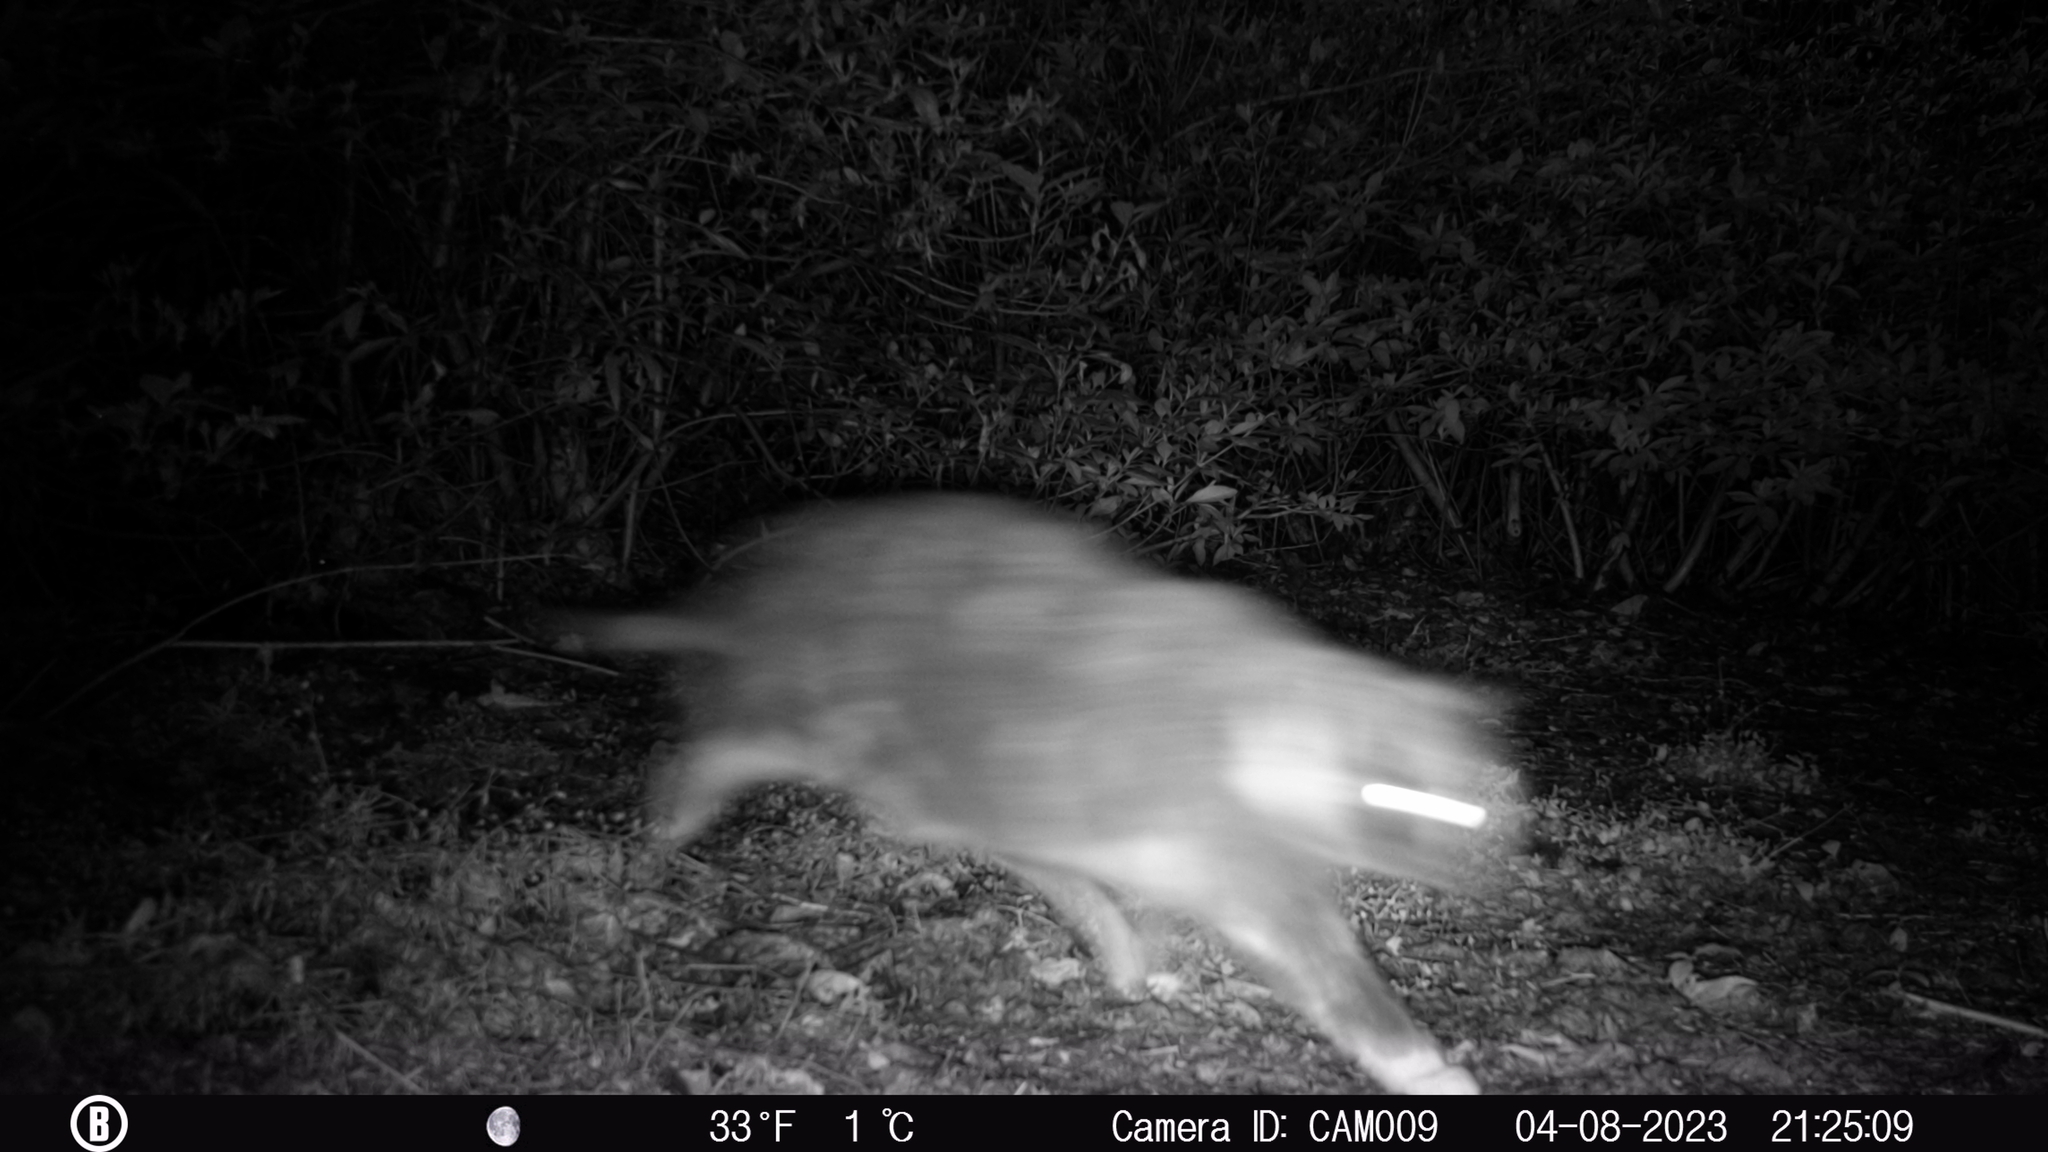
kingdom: Animalia
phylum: Chordata
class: Mammalia
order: Carnivora
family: Felidae
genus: Felis
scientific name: Felis catus
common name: Domestic cat
